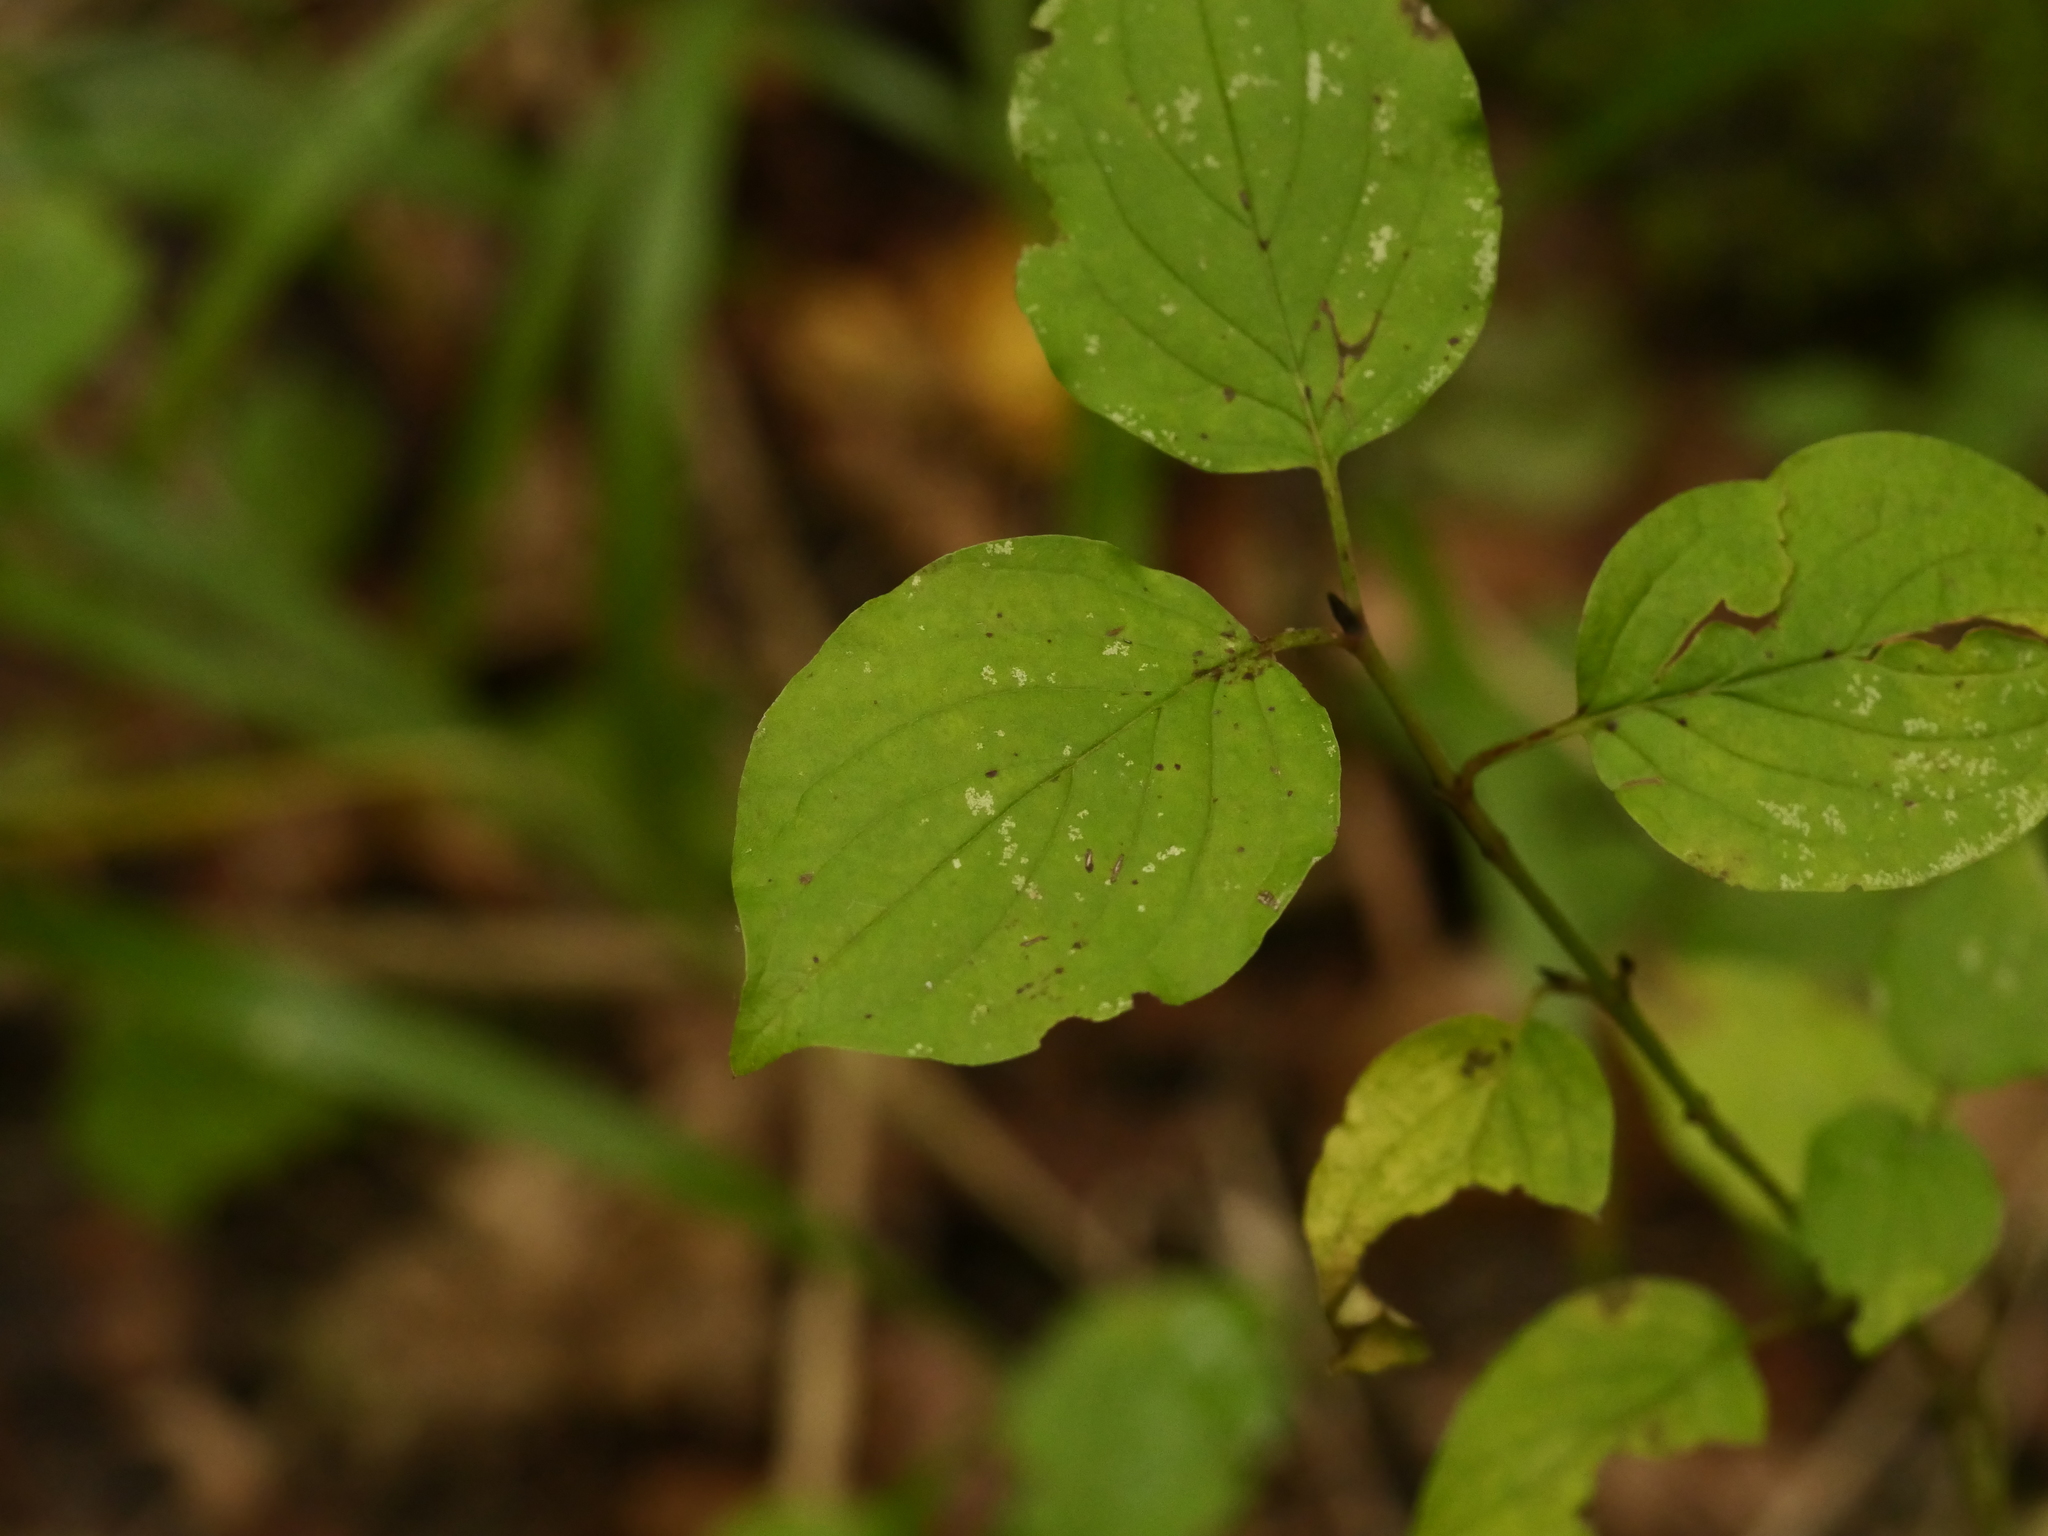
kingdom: Plantae
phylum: Tracheophyta
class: Magnoliopsida
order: Cornales
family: Cornaceae
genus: Cornus
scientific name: Cornus sanguinea
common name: Dogwood
